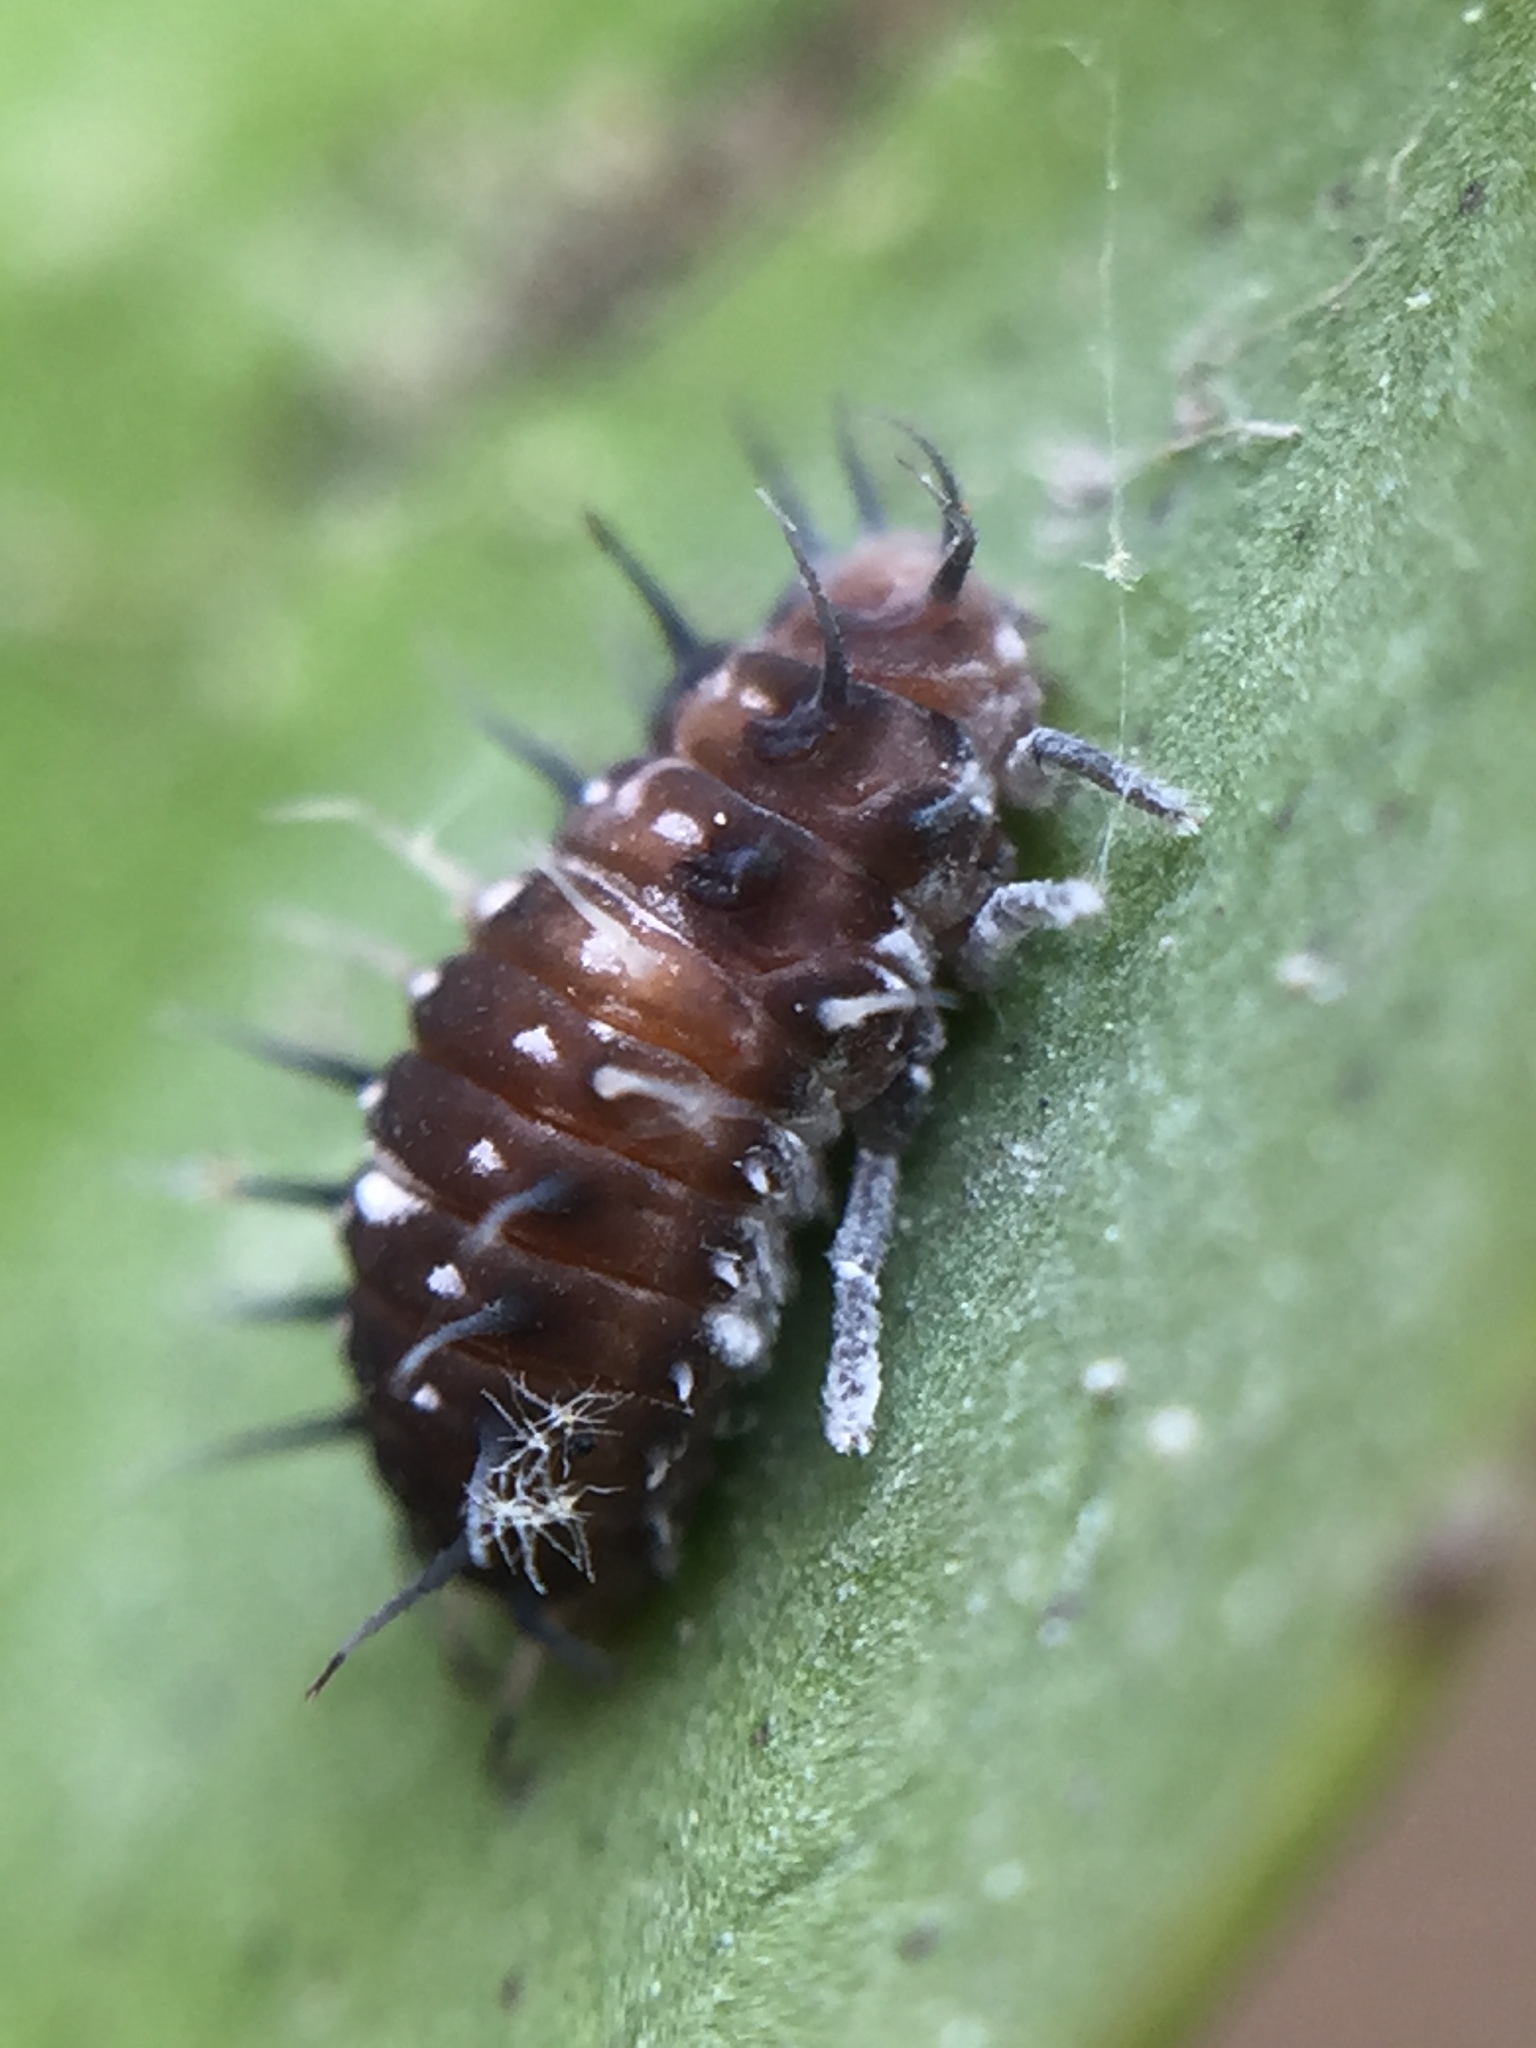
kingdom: Animalia
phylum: Arthropoda
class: Insecta
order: Coleoptera
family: Coccinellidae
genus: Scymnodes
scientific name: Scymnodes lividigaster
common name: Yellowshouldered lady beetle
